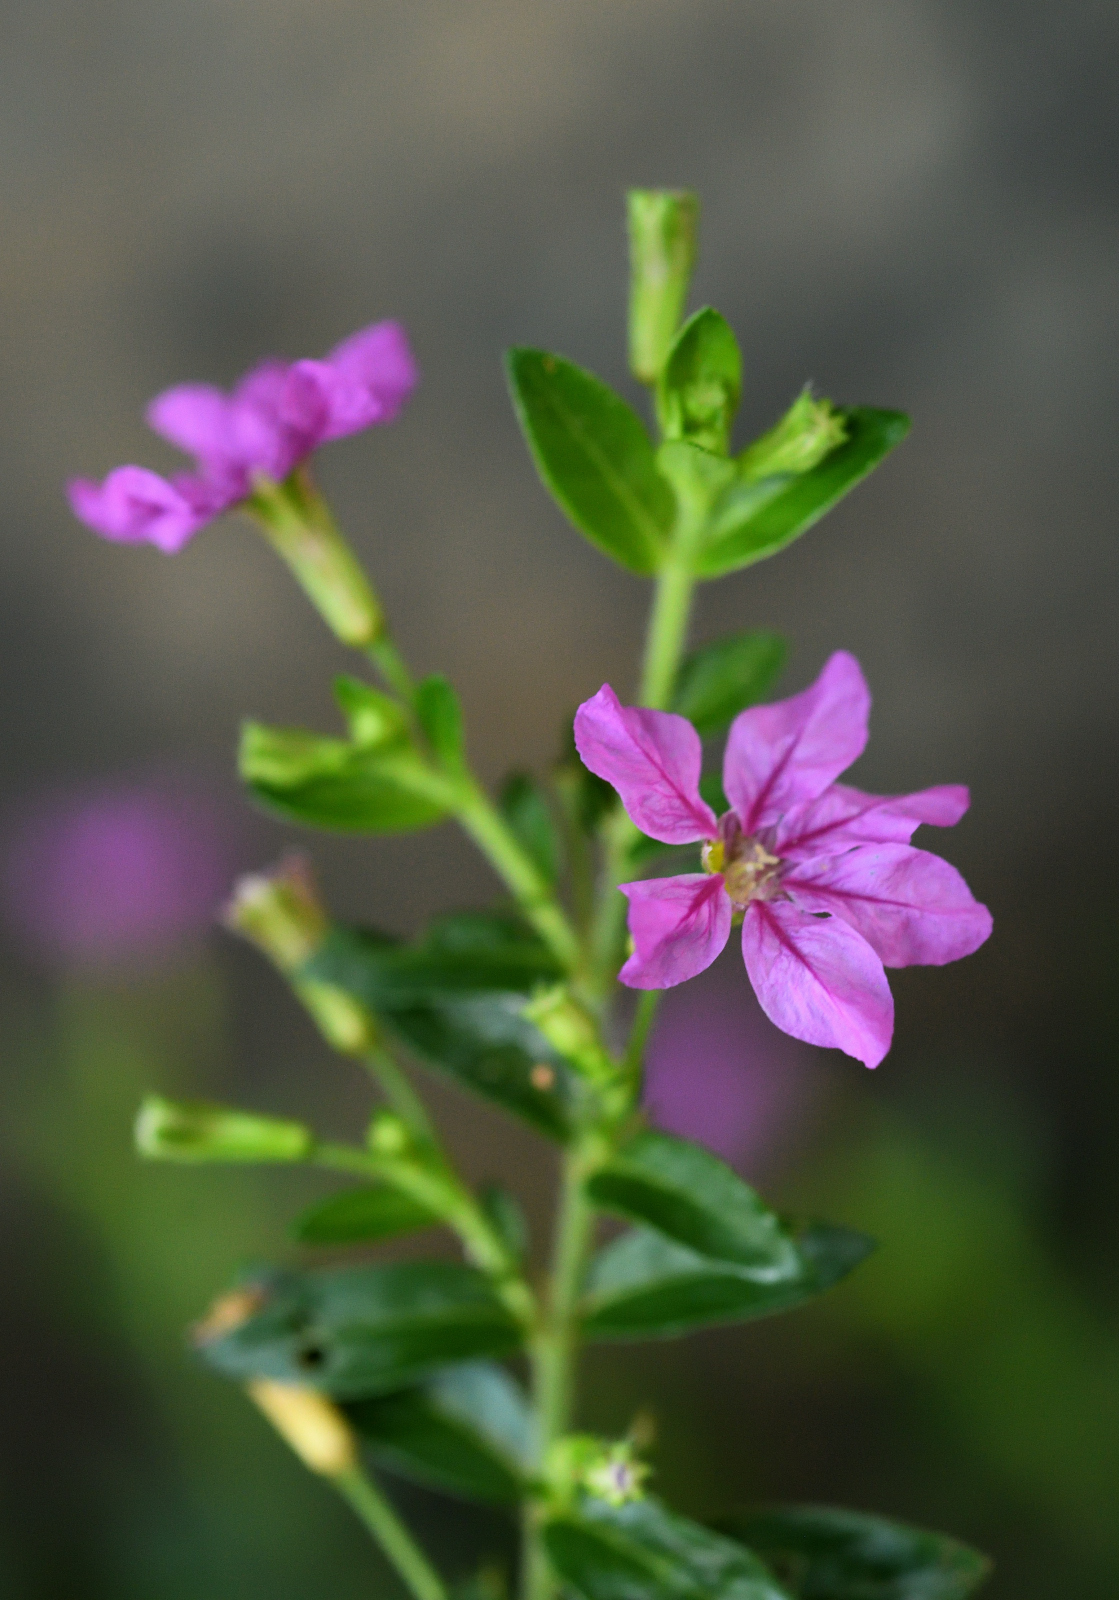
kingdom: Plantae
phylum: Tracheophyta
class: Magnoliopsida
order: Myrtales
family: Lythraceae
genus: Cuphea
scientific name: Cuphea hyssopifolia
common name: False heather
